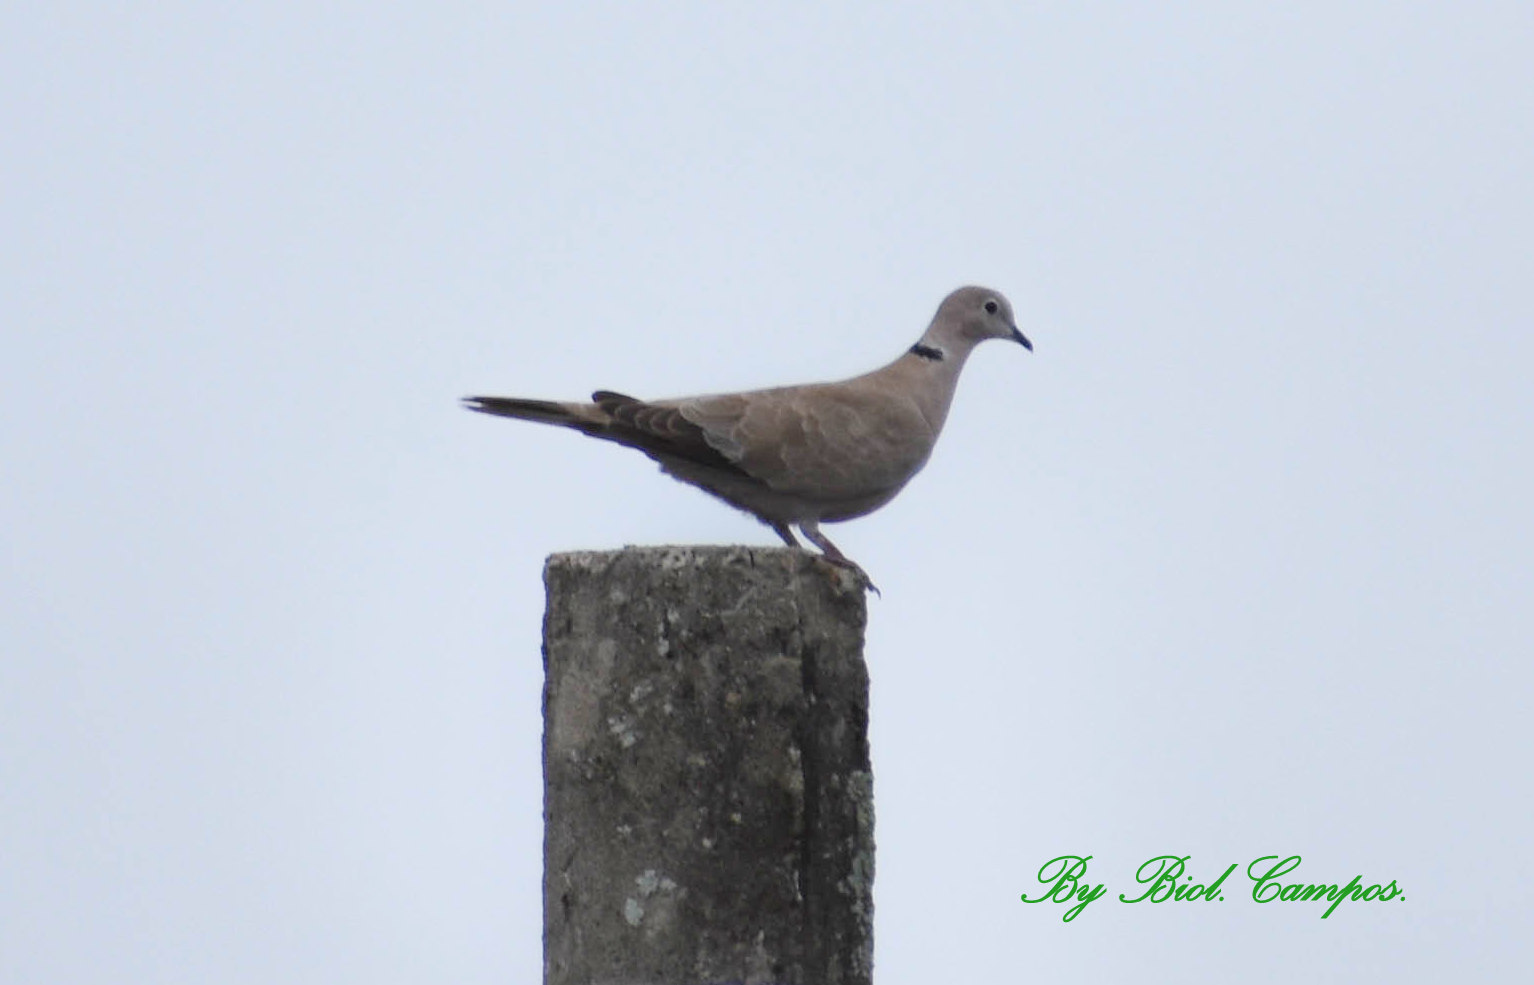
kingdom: Animalia
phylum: Chordata
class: Aves
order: Columbiformes
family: Columbidae
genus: Streptopelia
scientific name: Streptopelia decaocto
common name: Eurasian collared dove
